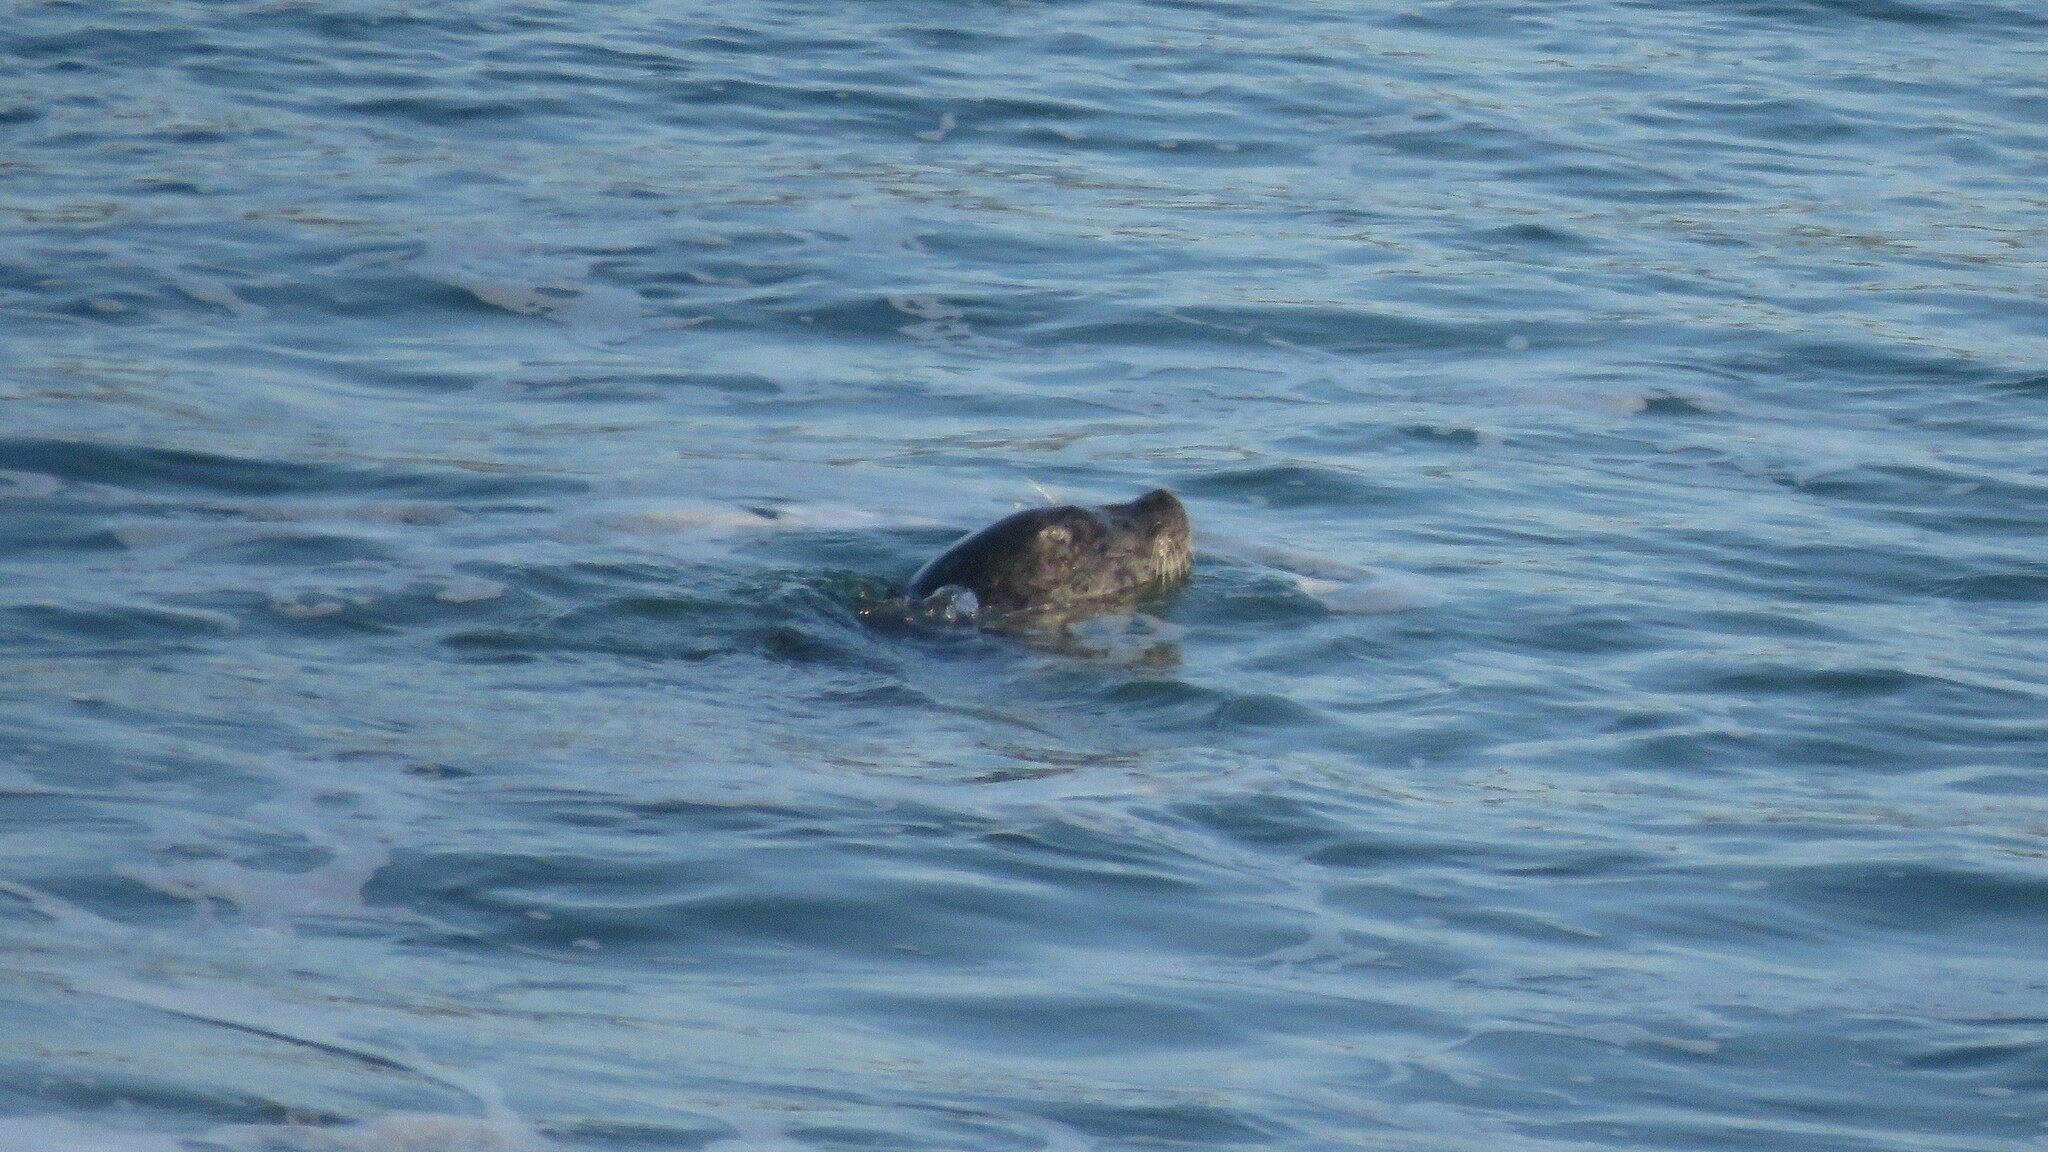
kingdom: Animalia
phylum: Chordata
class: Mammalia
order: Carnivora
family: Phocidae
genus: Phoca
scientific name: Phoca vitulina
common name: Harbor seal
